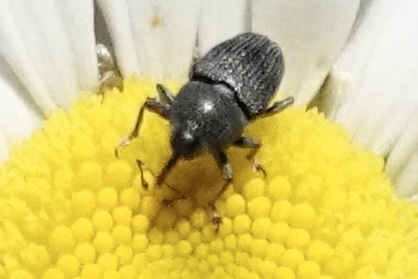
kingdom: Animalia
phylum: Arthropoda
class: Insecta
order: Coleoptera
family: Curculionidae
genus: Odontocorynus
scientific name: Odontocorynus salebrosus
